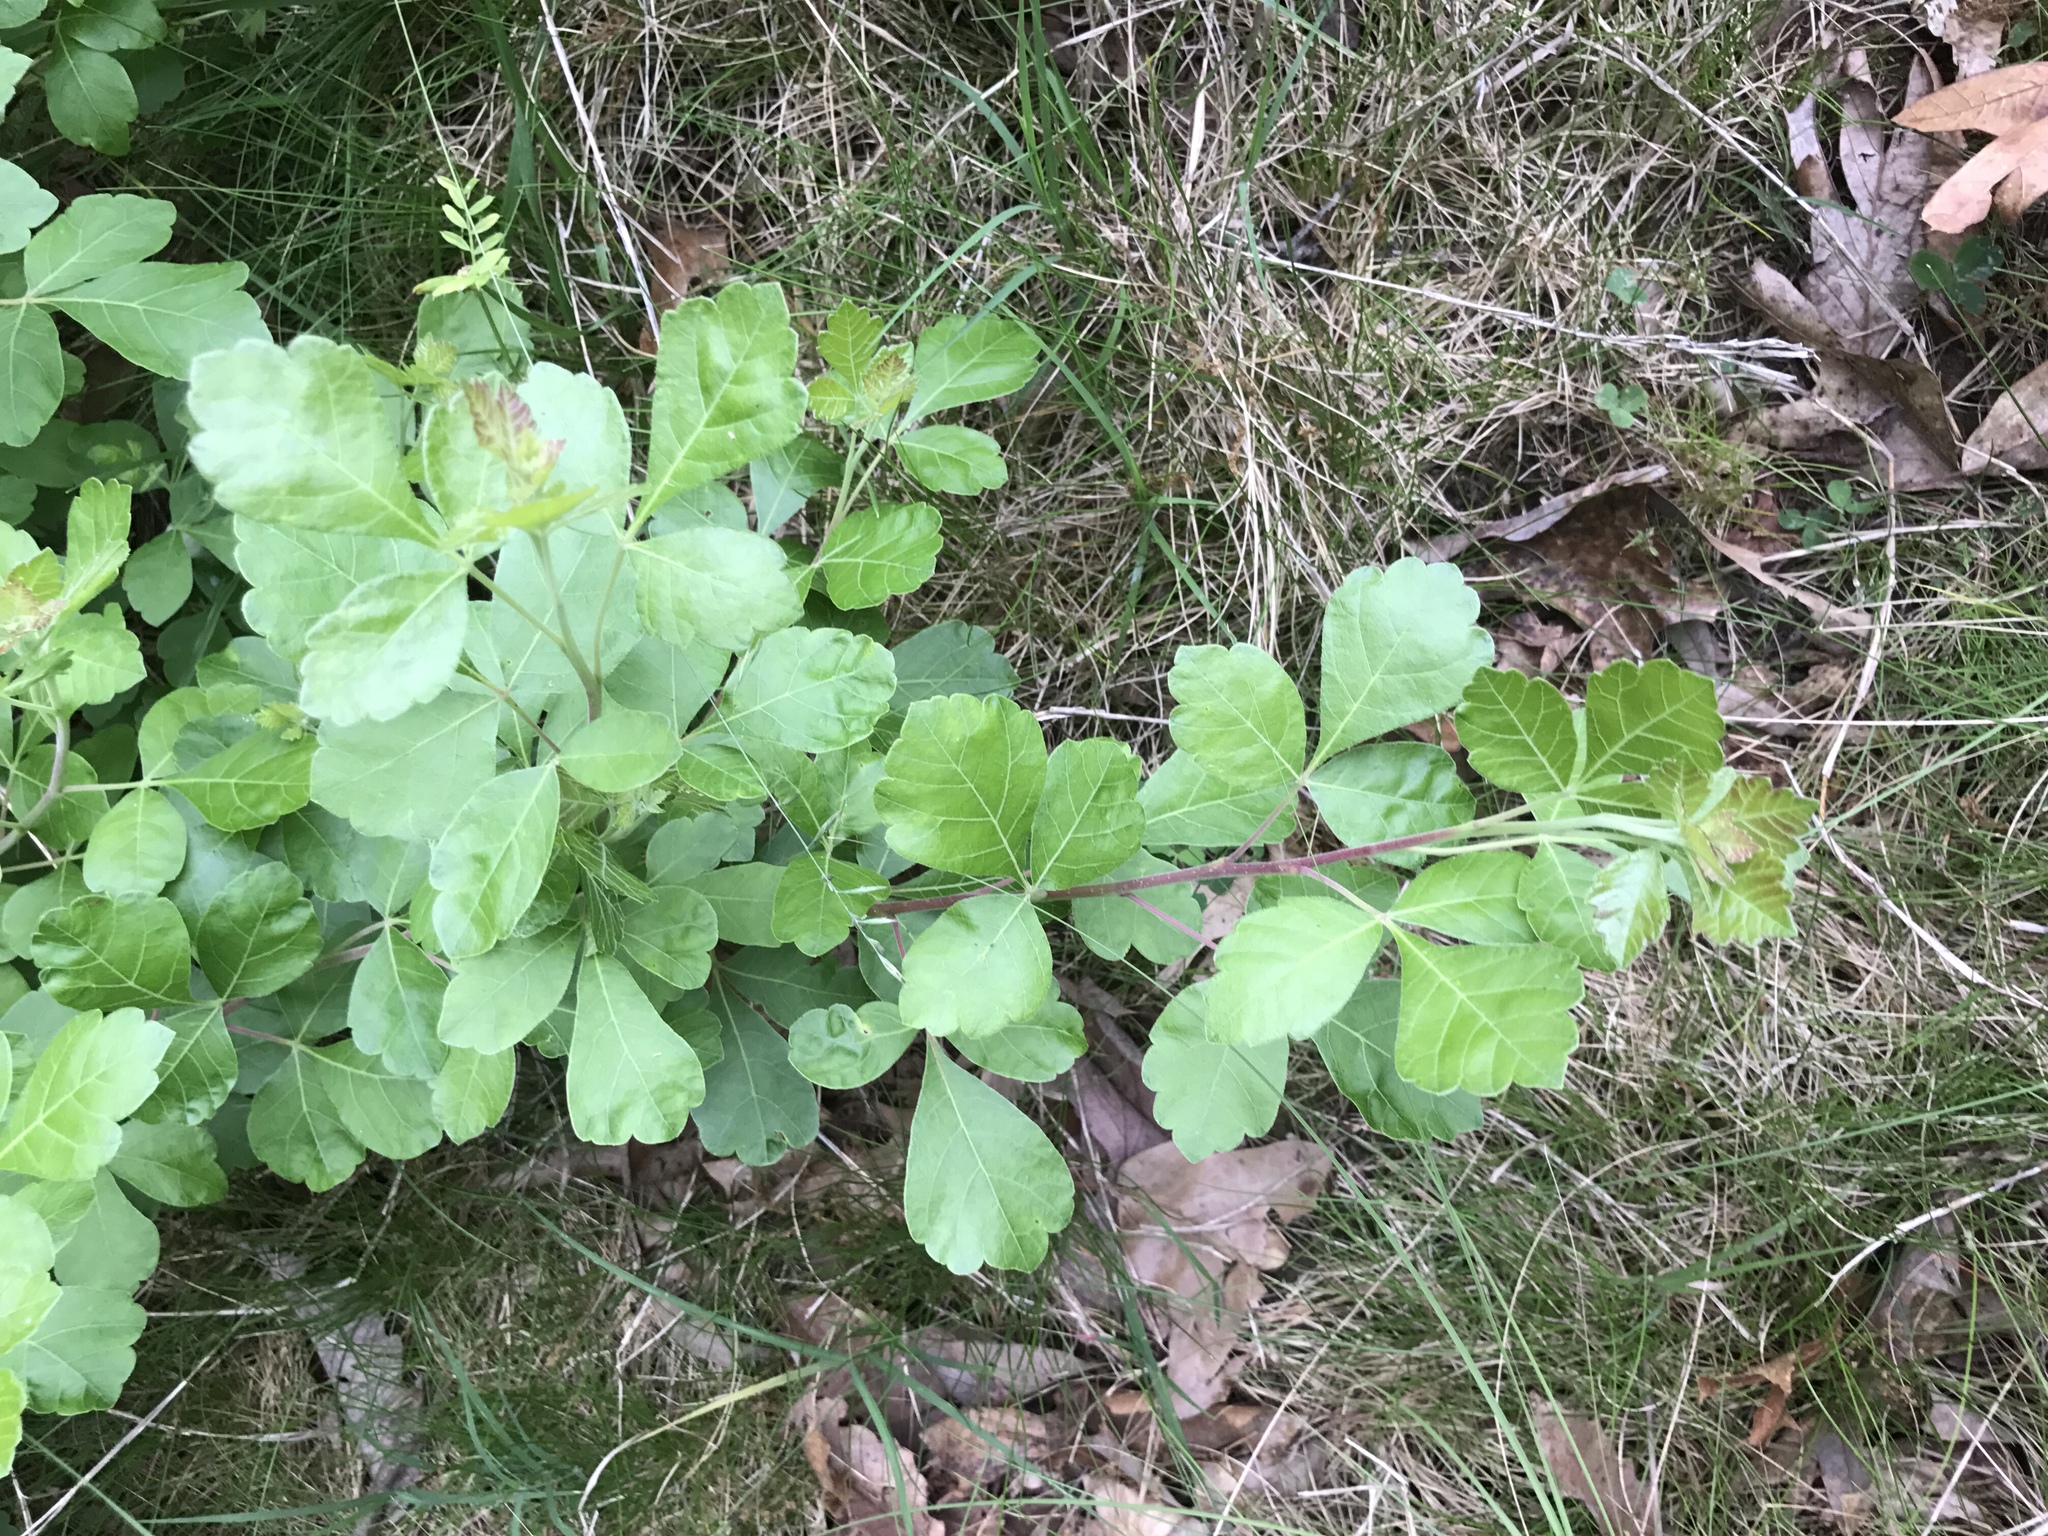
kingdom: Plantae
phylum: Tracheophyta
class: Magnoliopsida
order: Sapindales
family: Anacardiaceae
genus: Rhus
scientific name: Rhus aromatica
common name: Aromatic sumac
